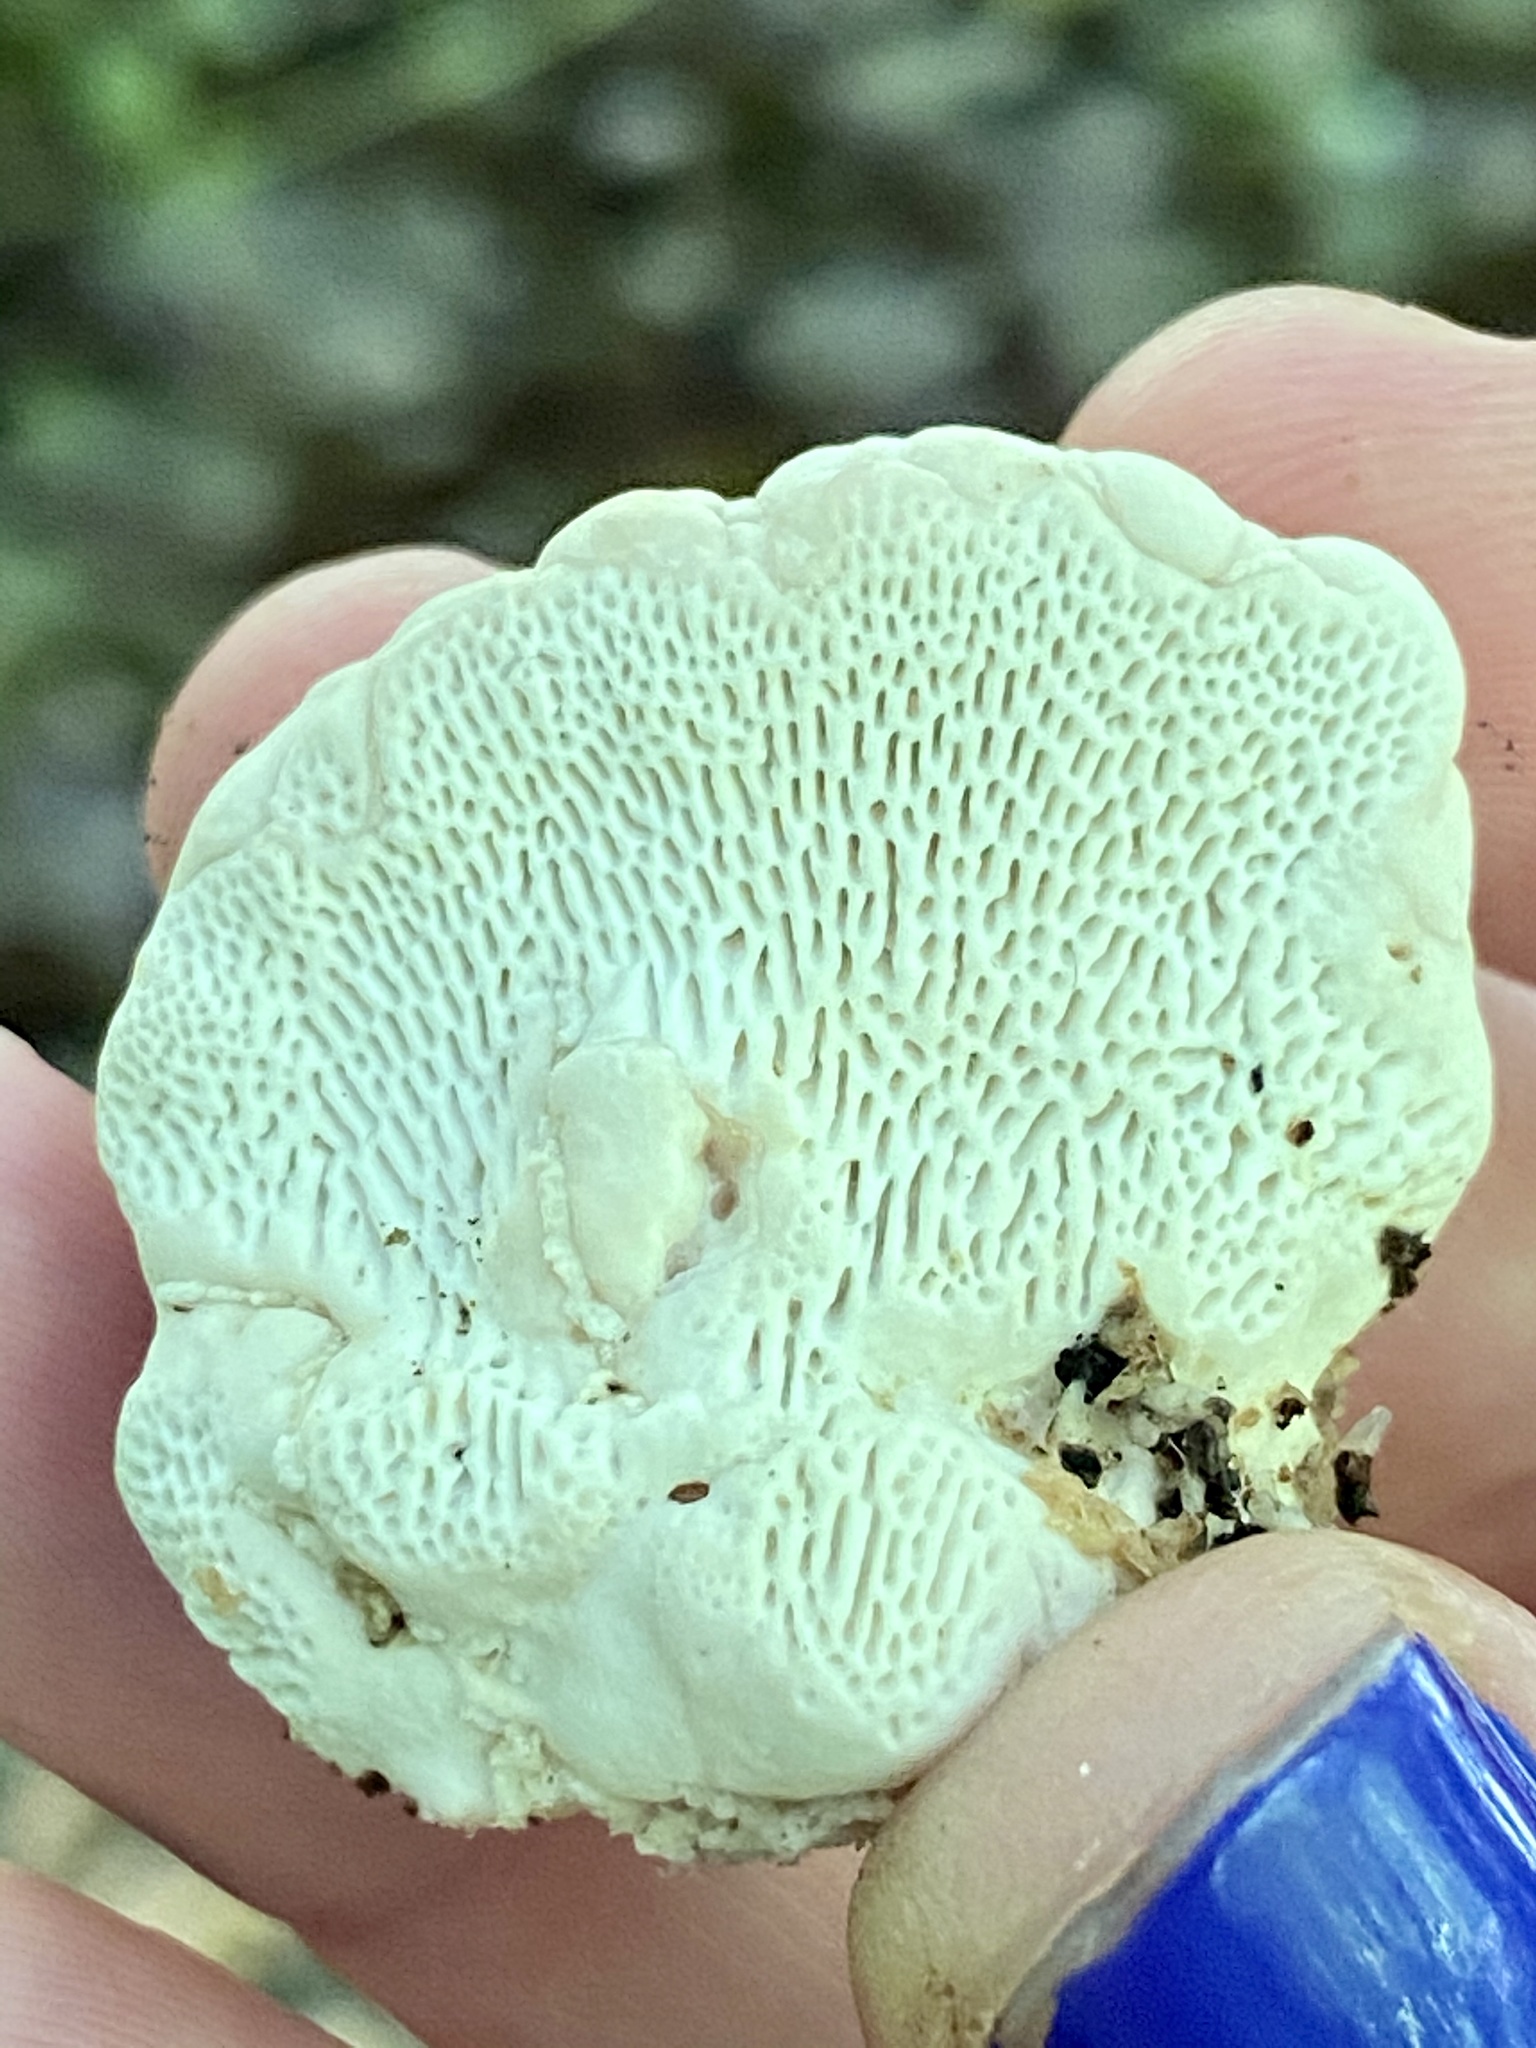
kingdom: Fungi
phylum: Basidiomycota
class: Agaricomycetes
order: Polyporales
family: Polyporaceae
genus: Trametes
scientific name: Trametes gibbosa
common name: Lumpy bracket
